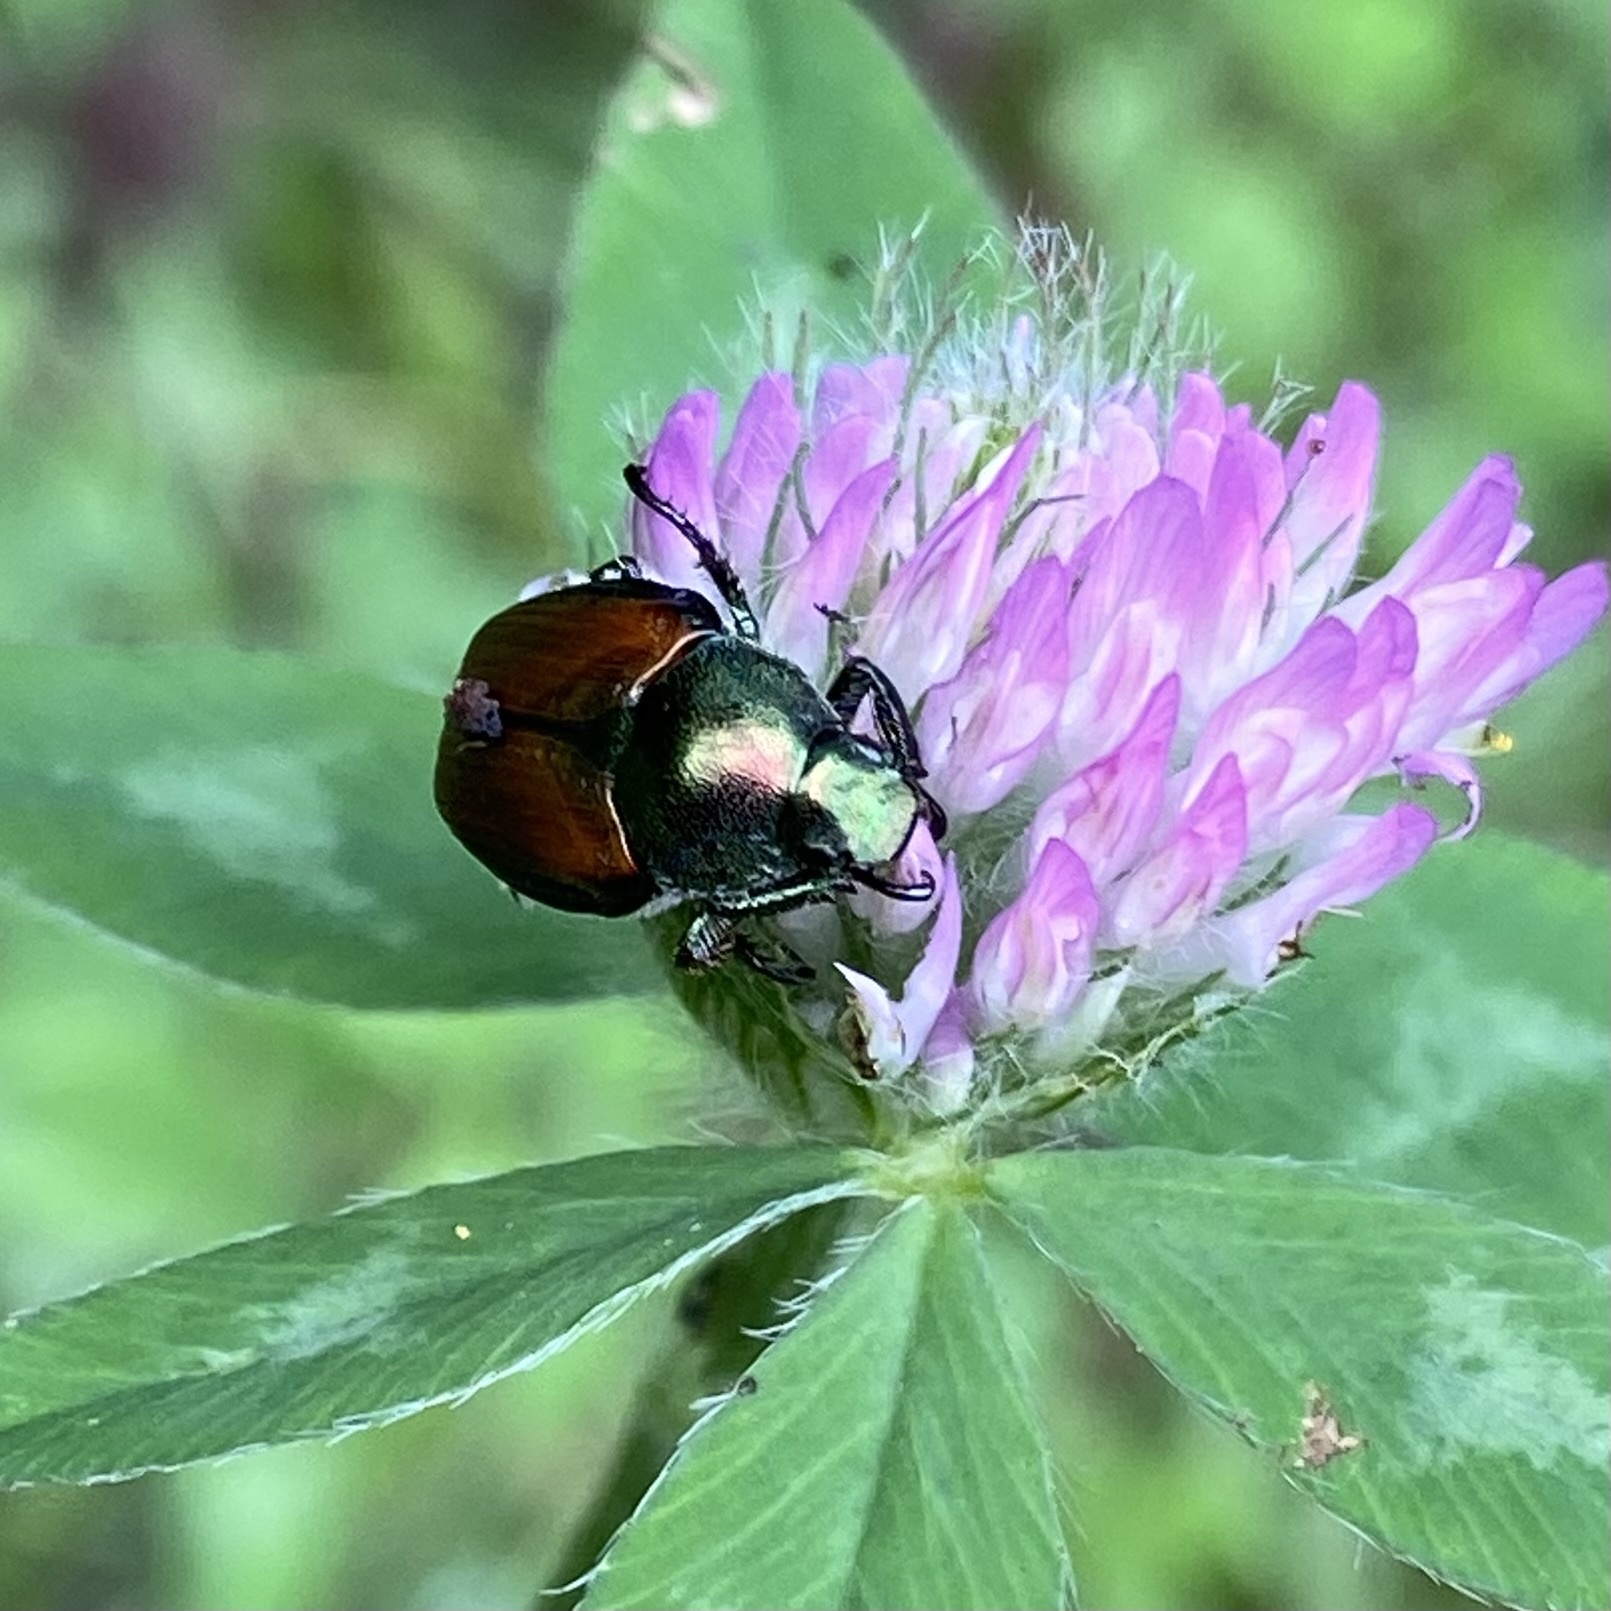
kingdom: Animalia
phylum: Arthropoda
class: Insecta
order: Coleoptera
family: Scarabaeidae
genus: Popillia
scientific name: Popillia japonica
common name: Japanese beetle
